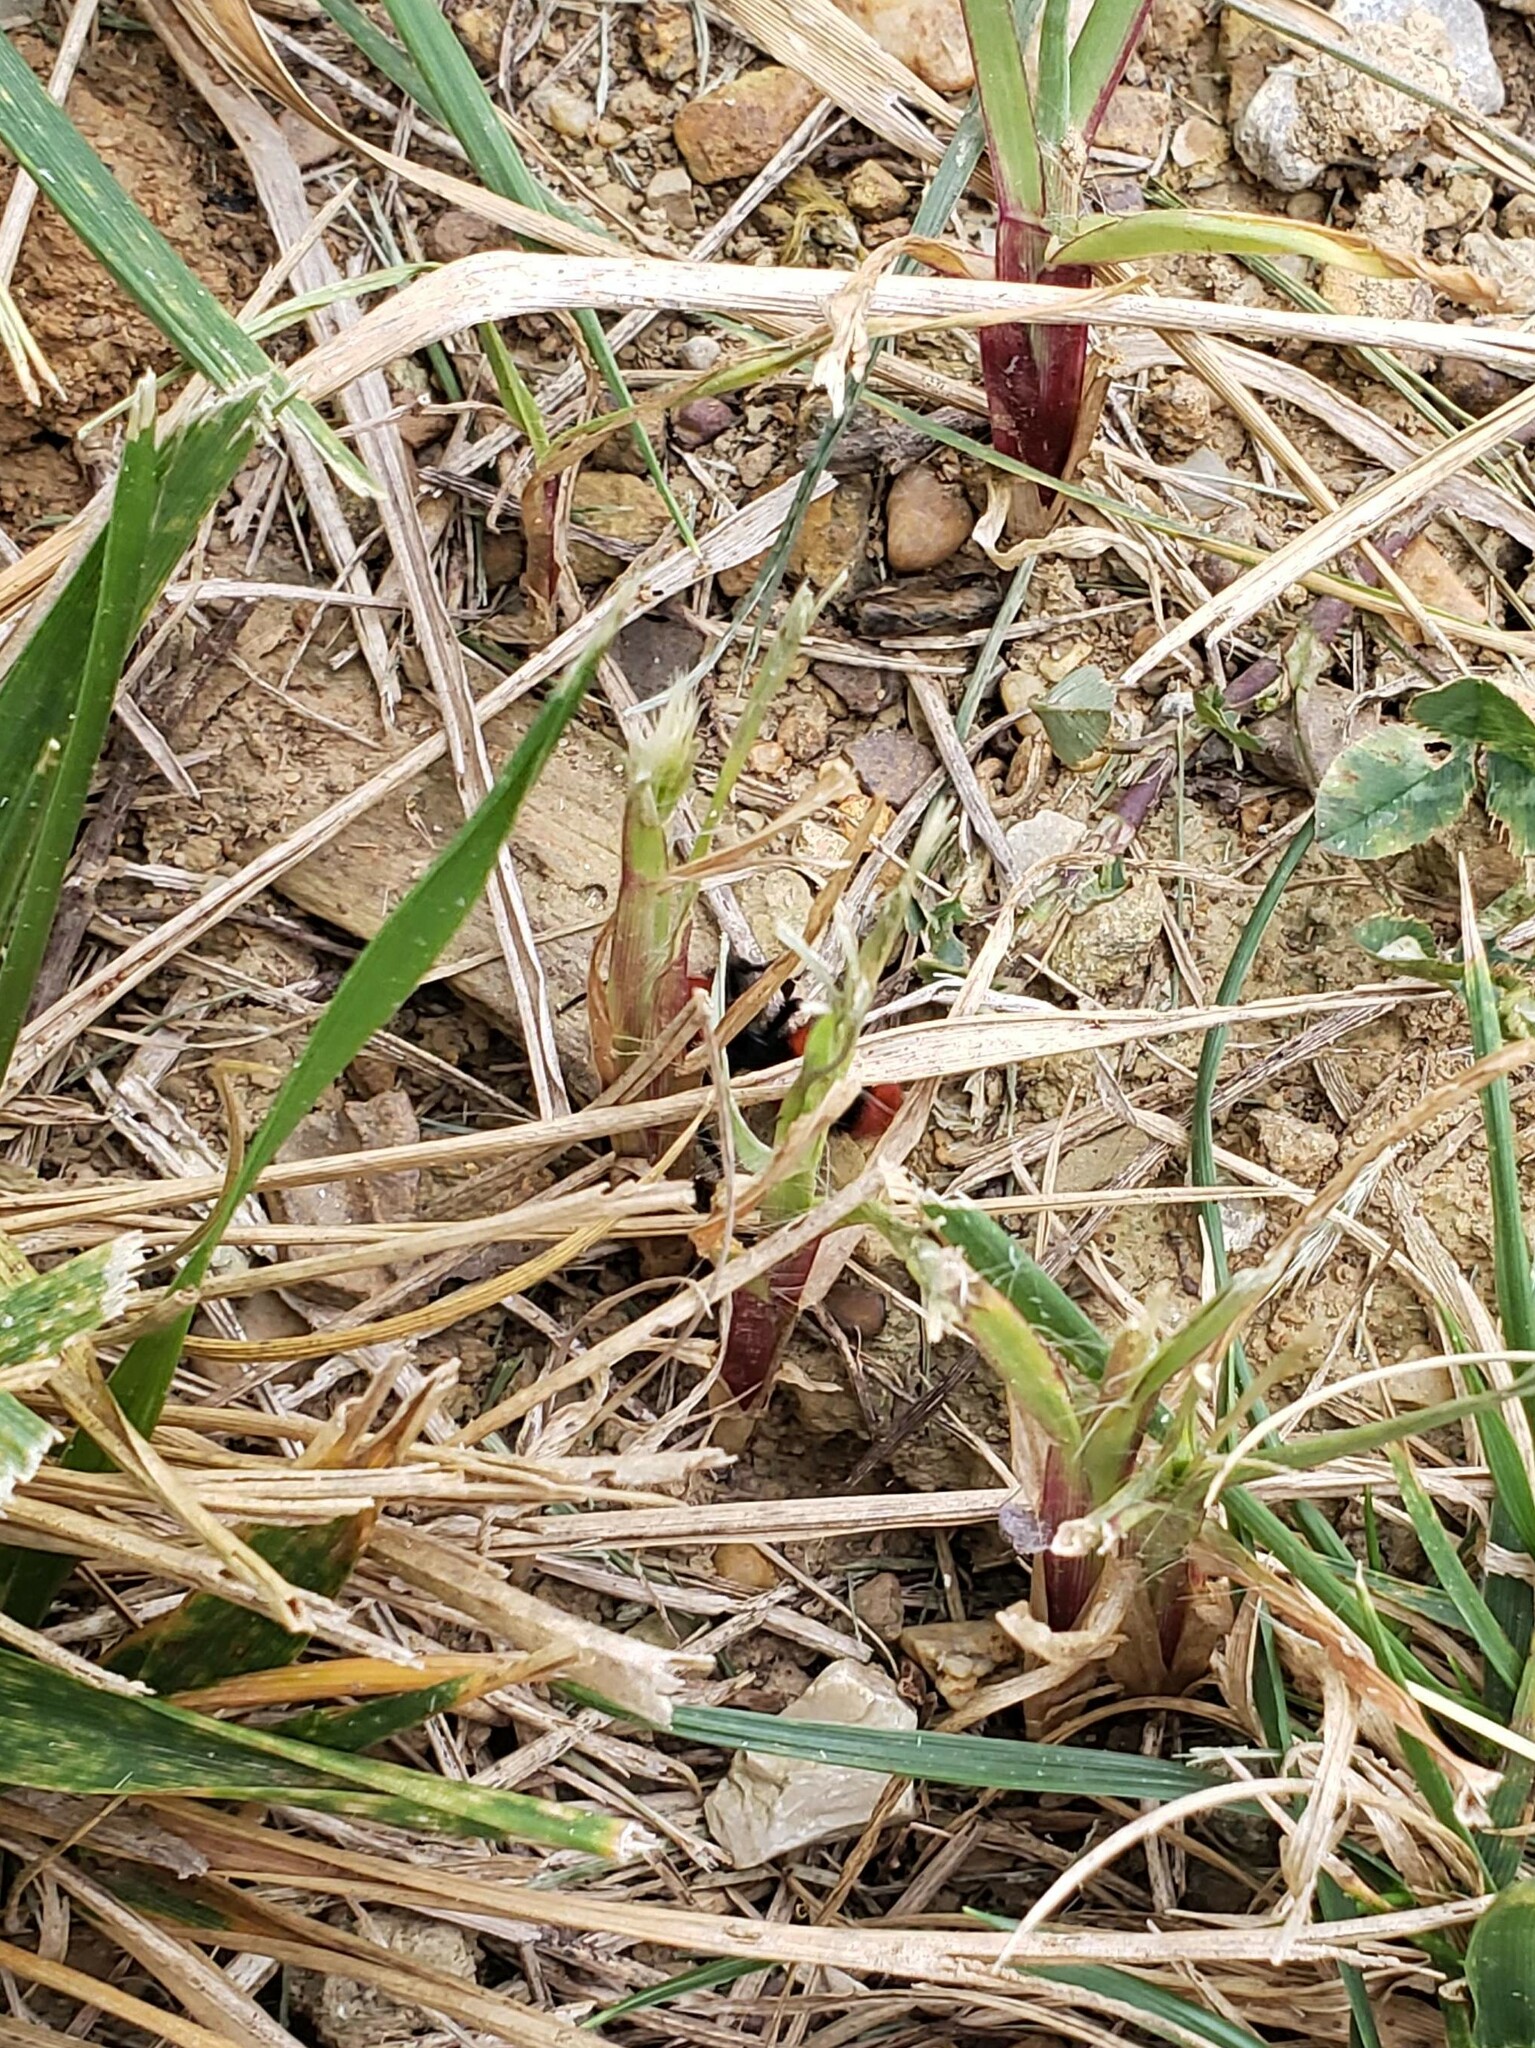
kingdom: Animalia
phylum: Arthropoda
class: Insecta
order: Hymenoptera
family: Mutillidae
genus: Dasymutilla
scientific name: Dasymutilla occidentalis
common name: Common eastern velvet ant
